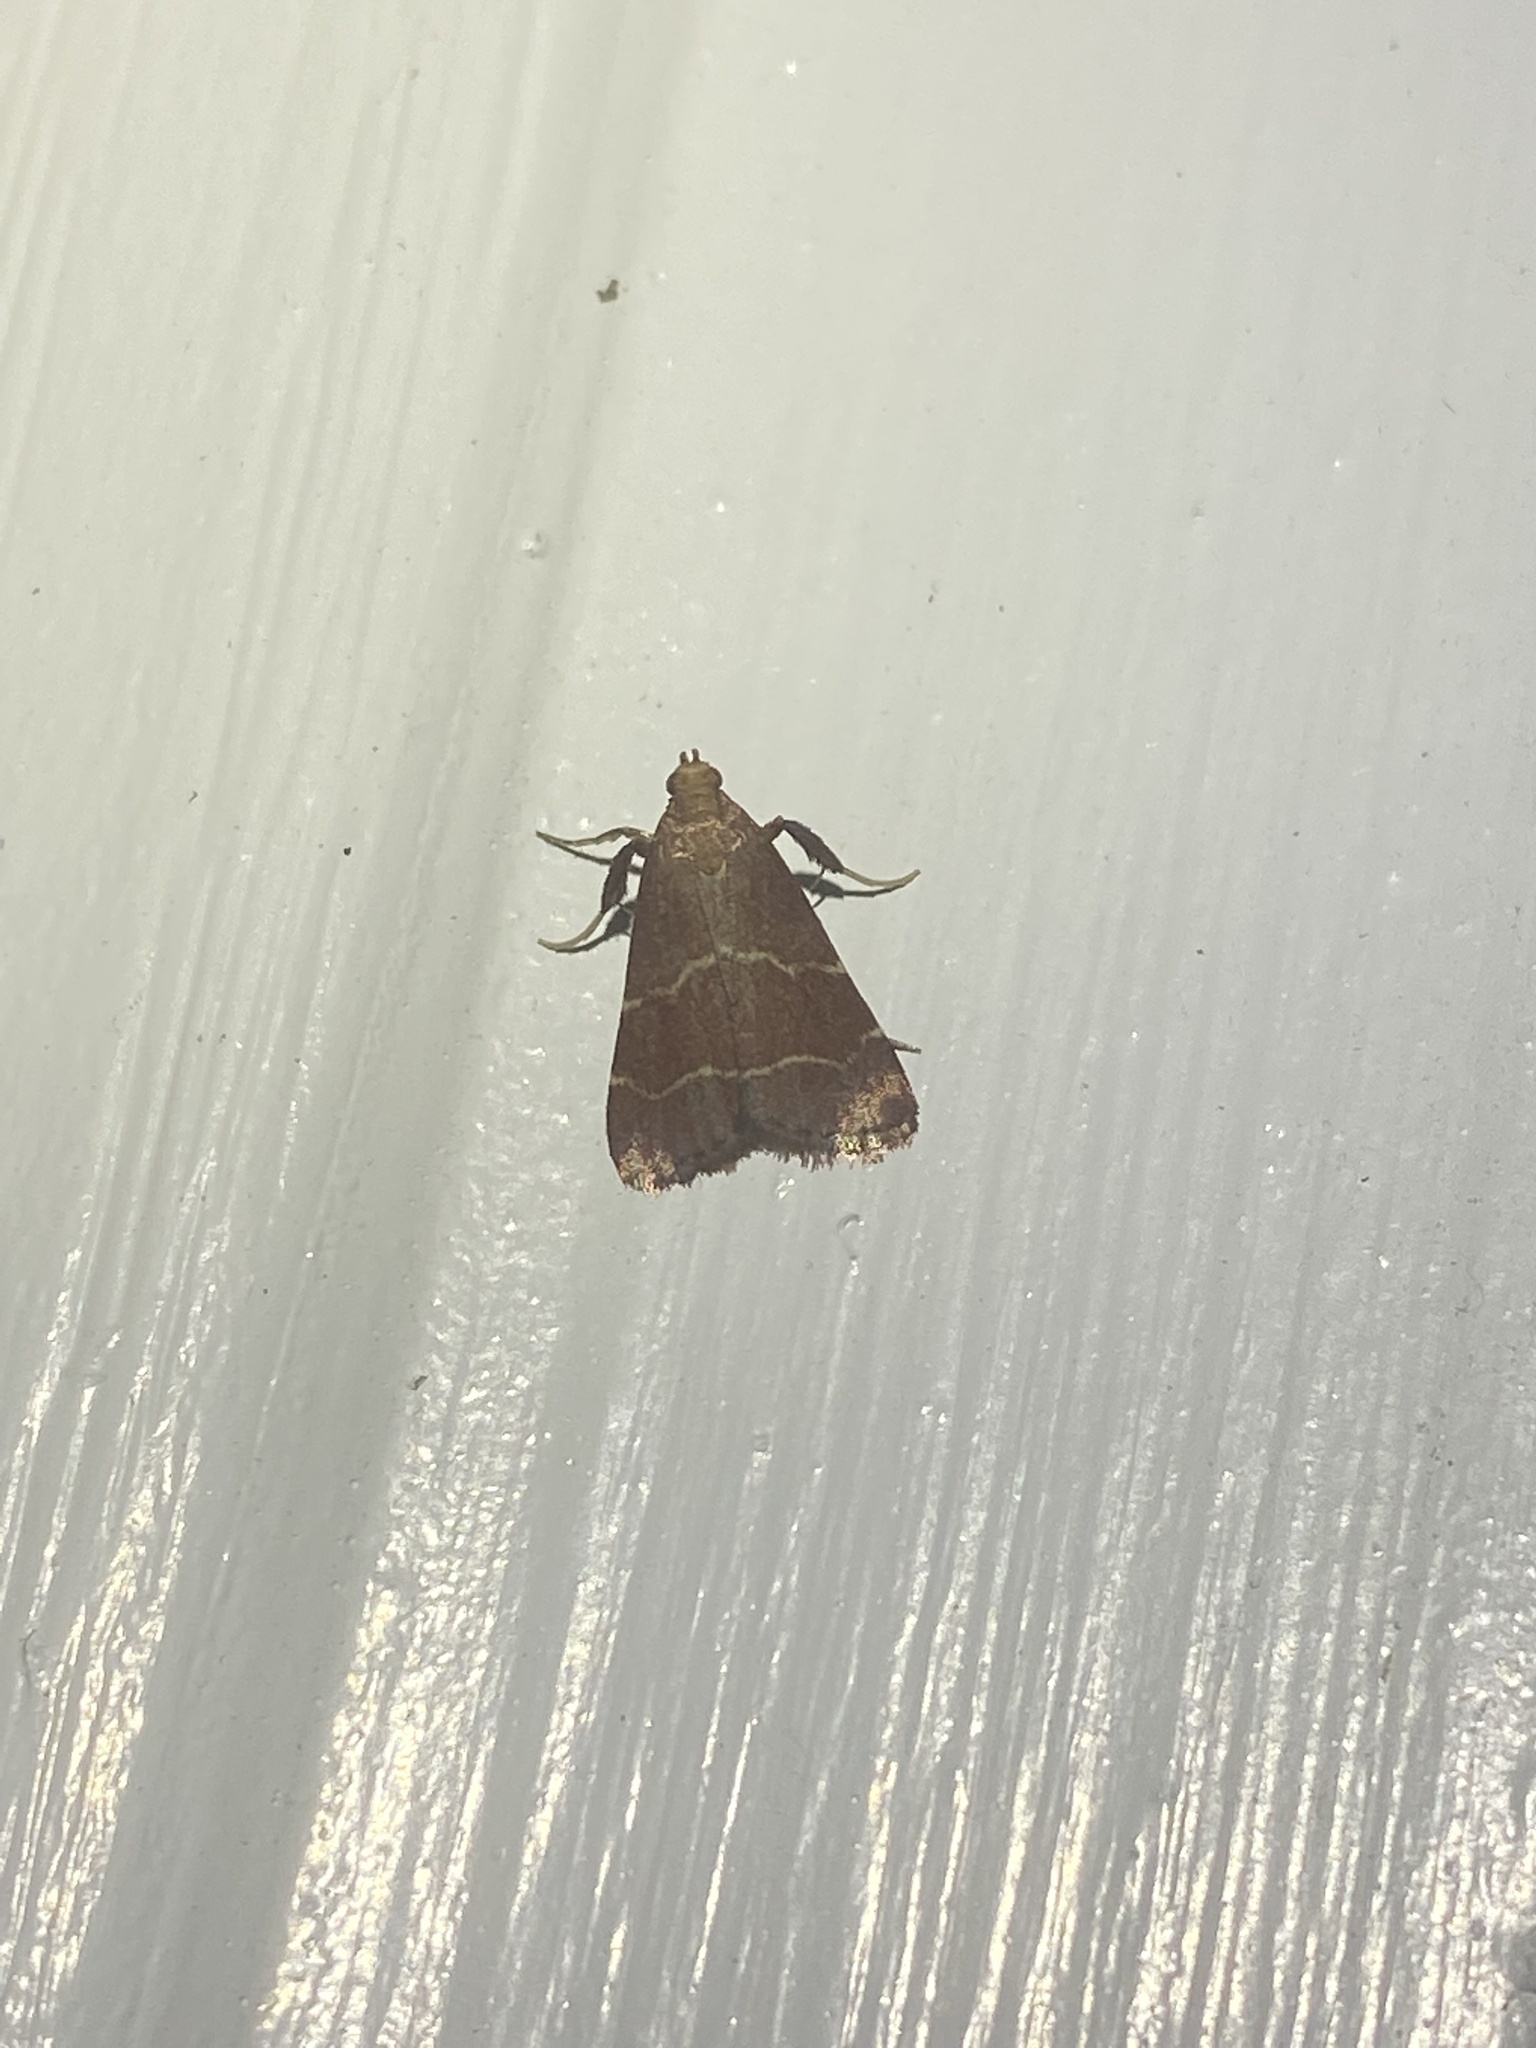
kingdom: Animalia
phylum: Arthropoda
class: Insecta
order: Lepidoptera
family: Pyralidae
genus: Arta
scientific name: Arta statalis
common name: Posturing arta moth
